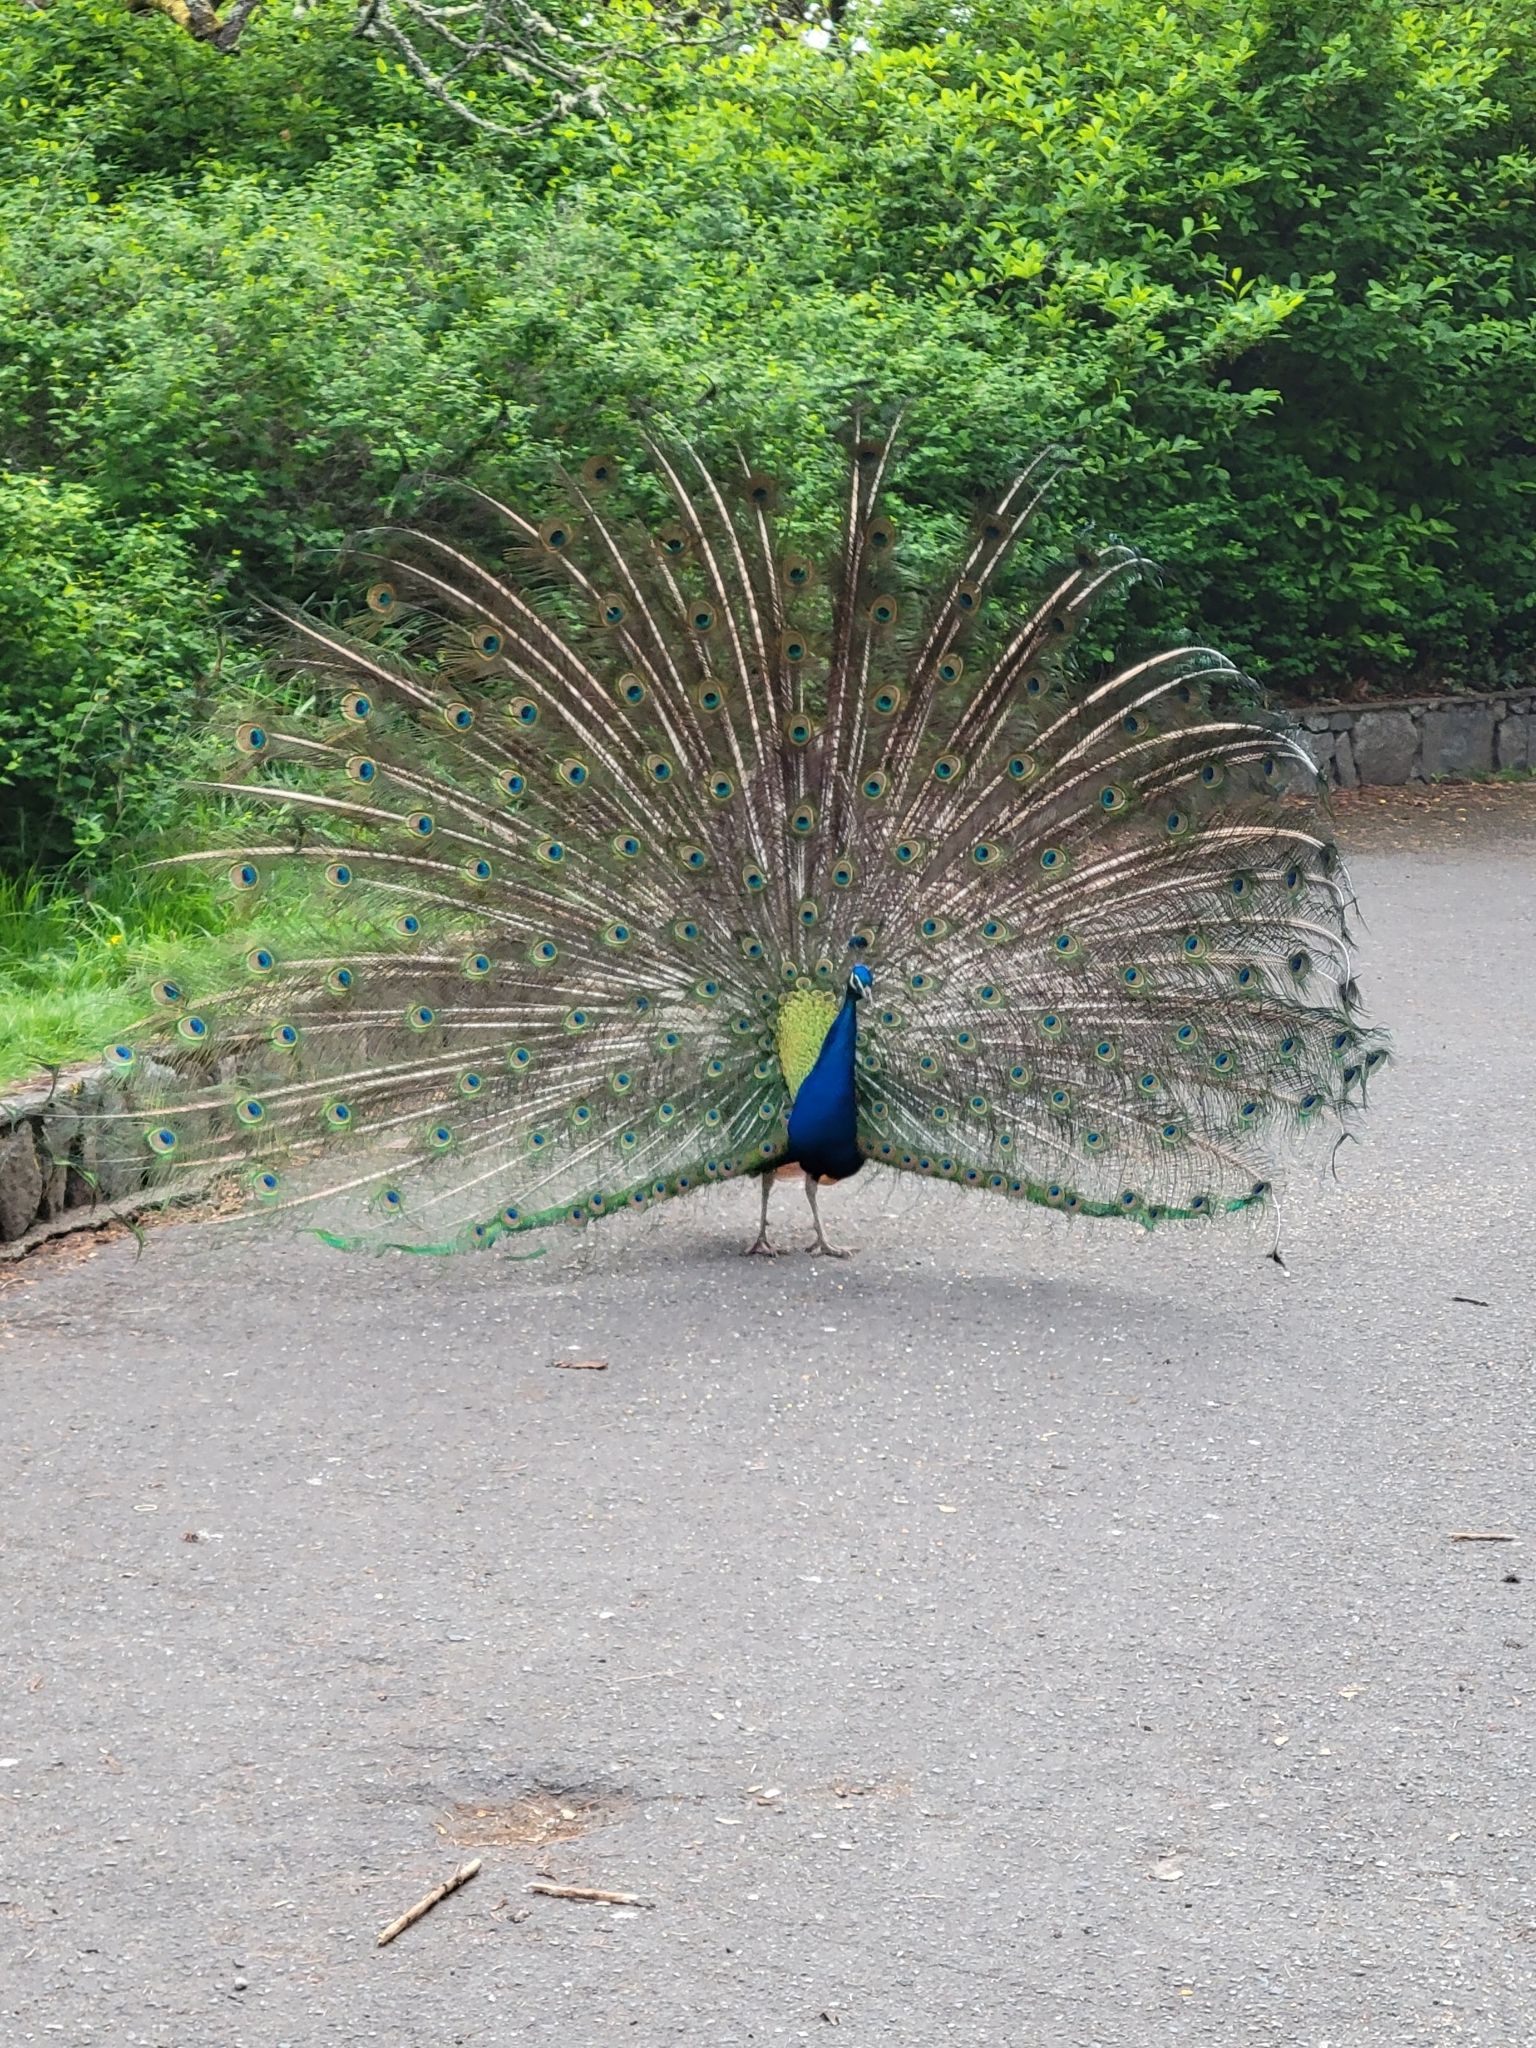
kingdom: Animalia
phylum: Chordata
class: Aves
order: Galliformes
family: Phasianidae
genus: Pavo
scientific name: Pavo cristatus
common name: Indian peafowl
